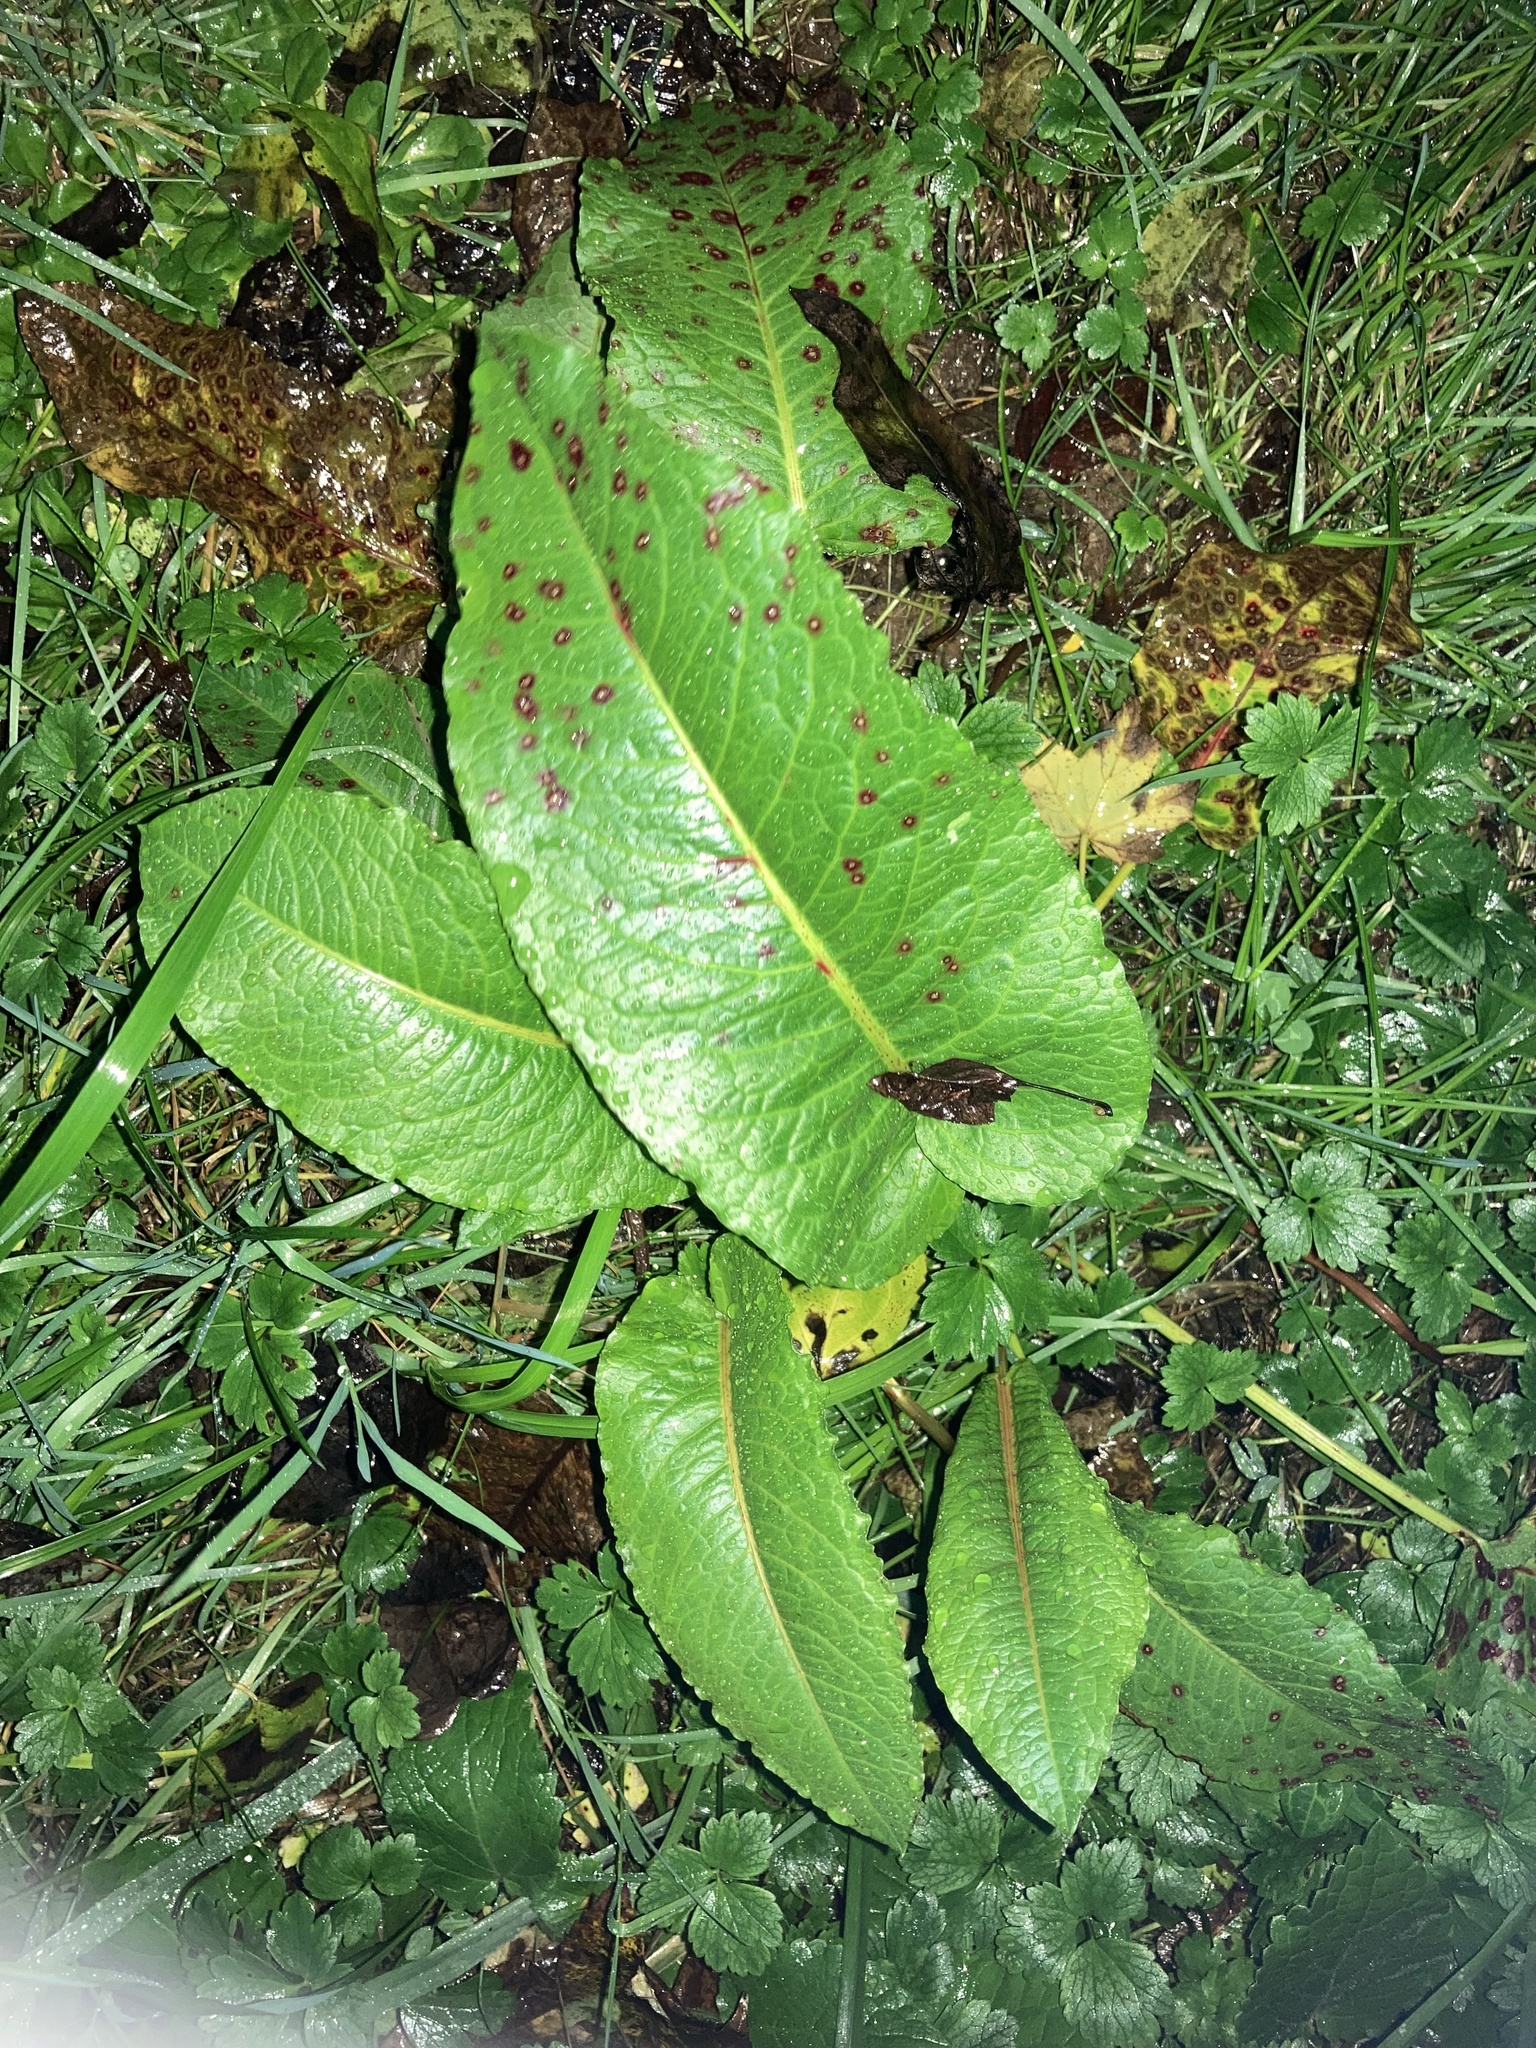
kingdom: Plantae
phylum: Tracheophyta
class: Magnoliopsida
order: Caryophyllales
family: Polygonaceae
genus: Rumex
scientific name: Rumex obtusifolius
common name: Bitter dock
